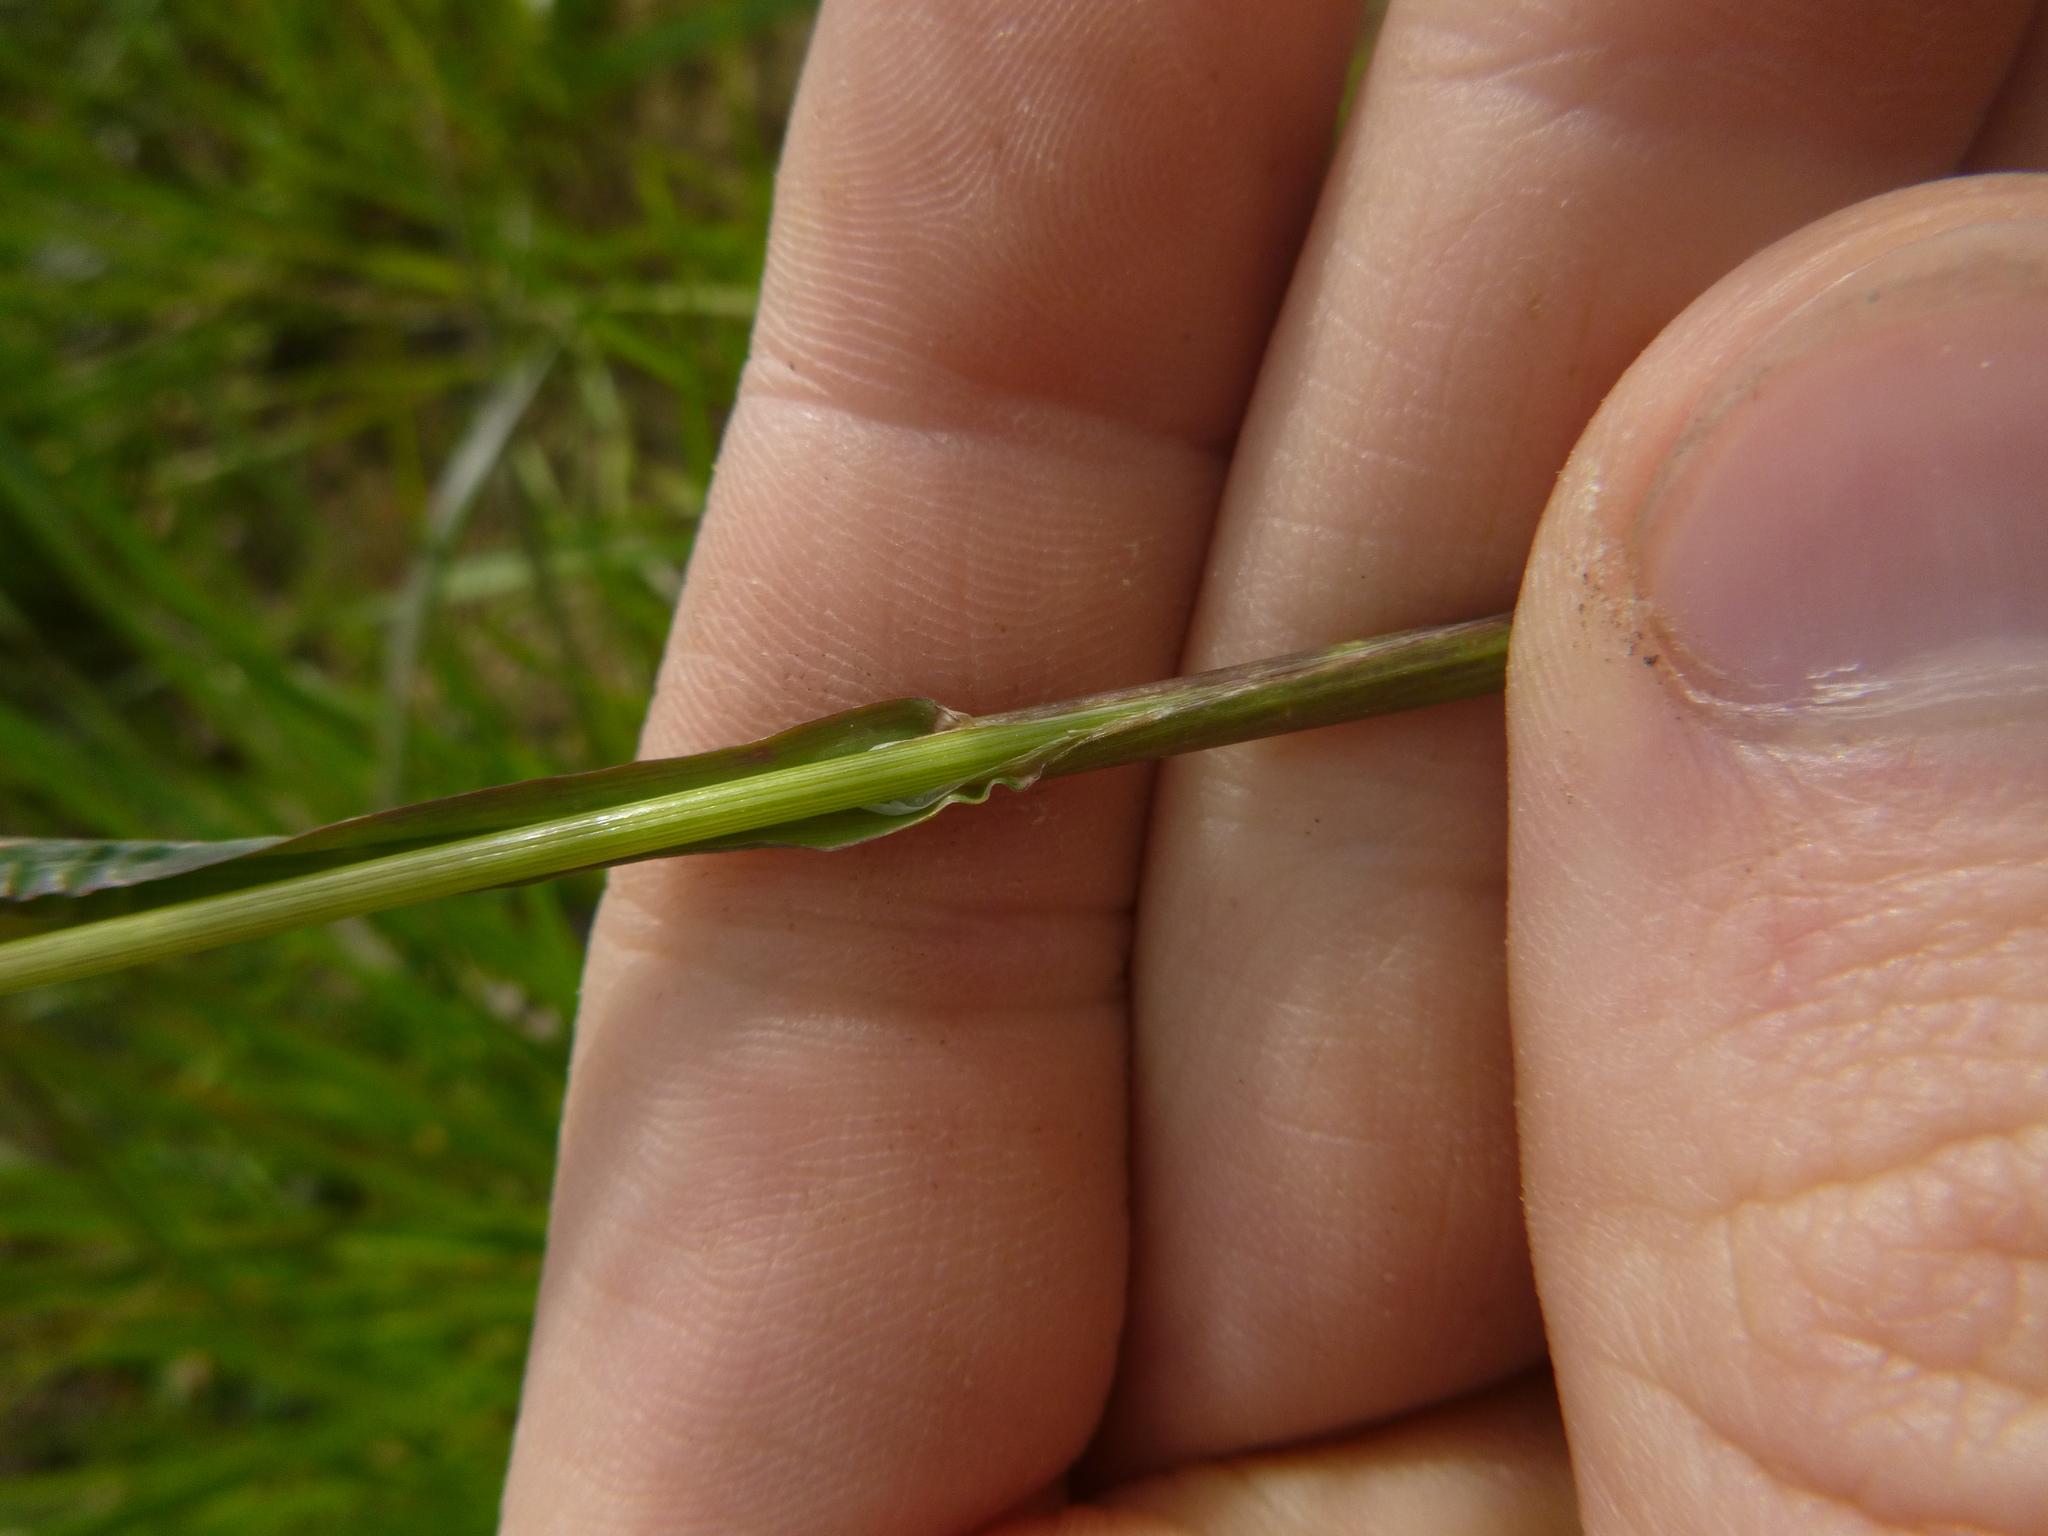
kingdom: Plantae
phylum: Tracheophyta
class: Liliopsida
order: Poales
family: Poaceae
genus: Poa
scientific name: Poa trivialis
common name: Rough bluegrass
